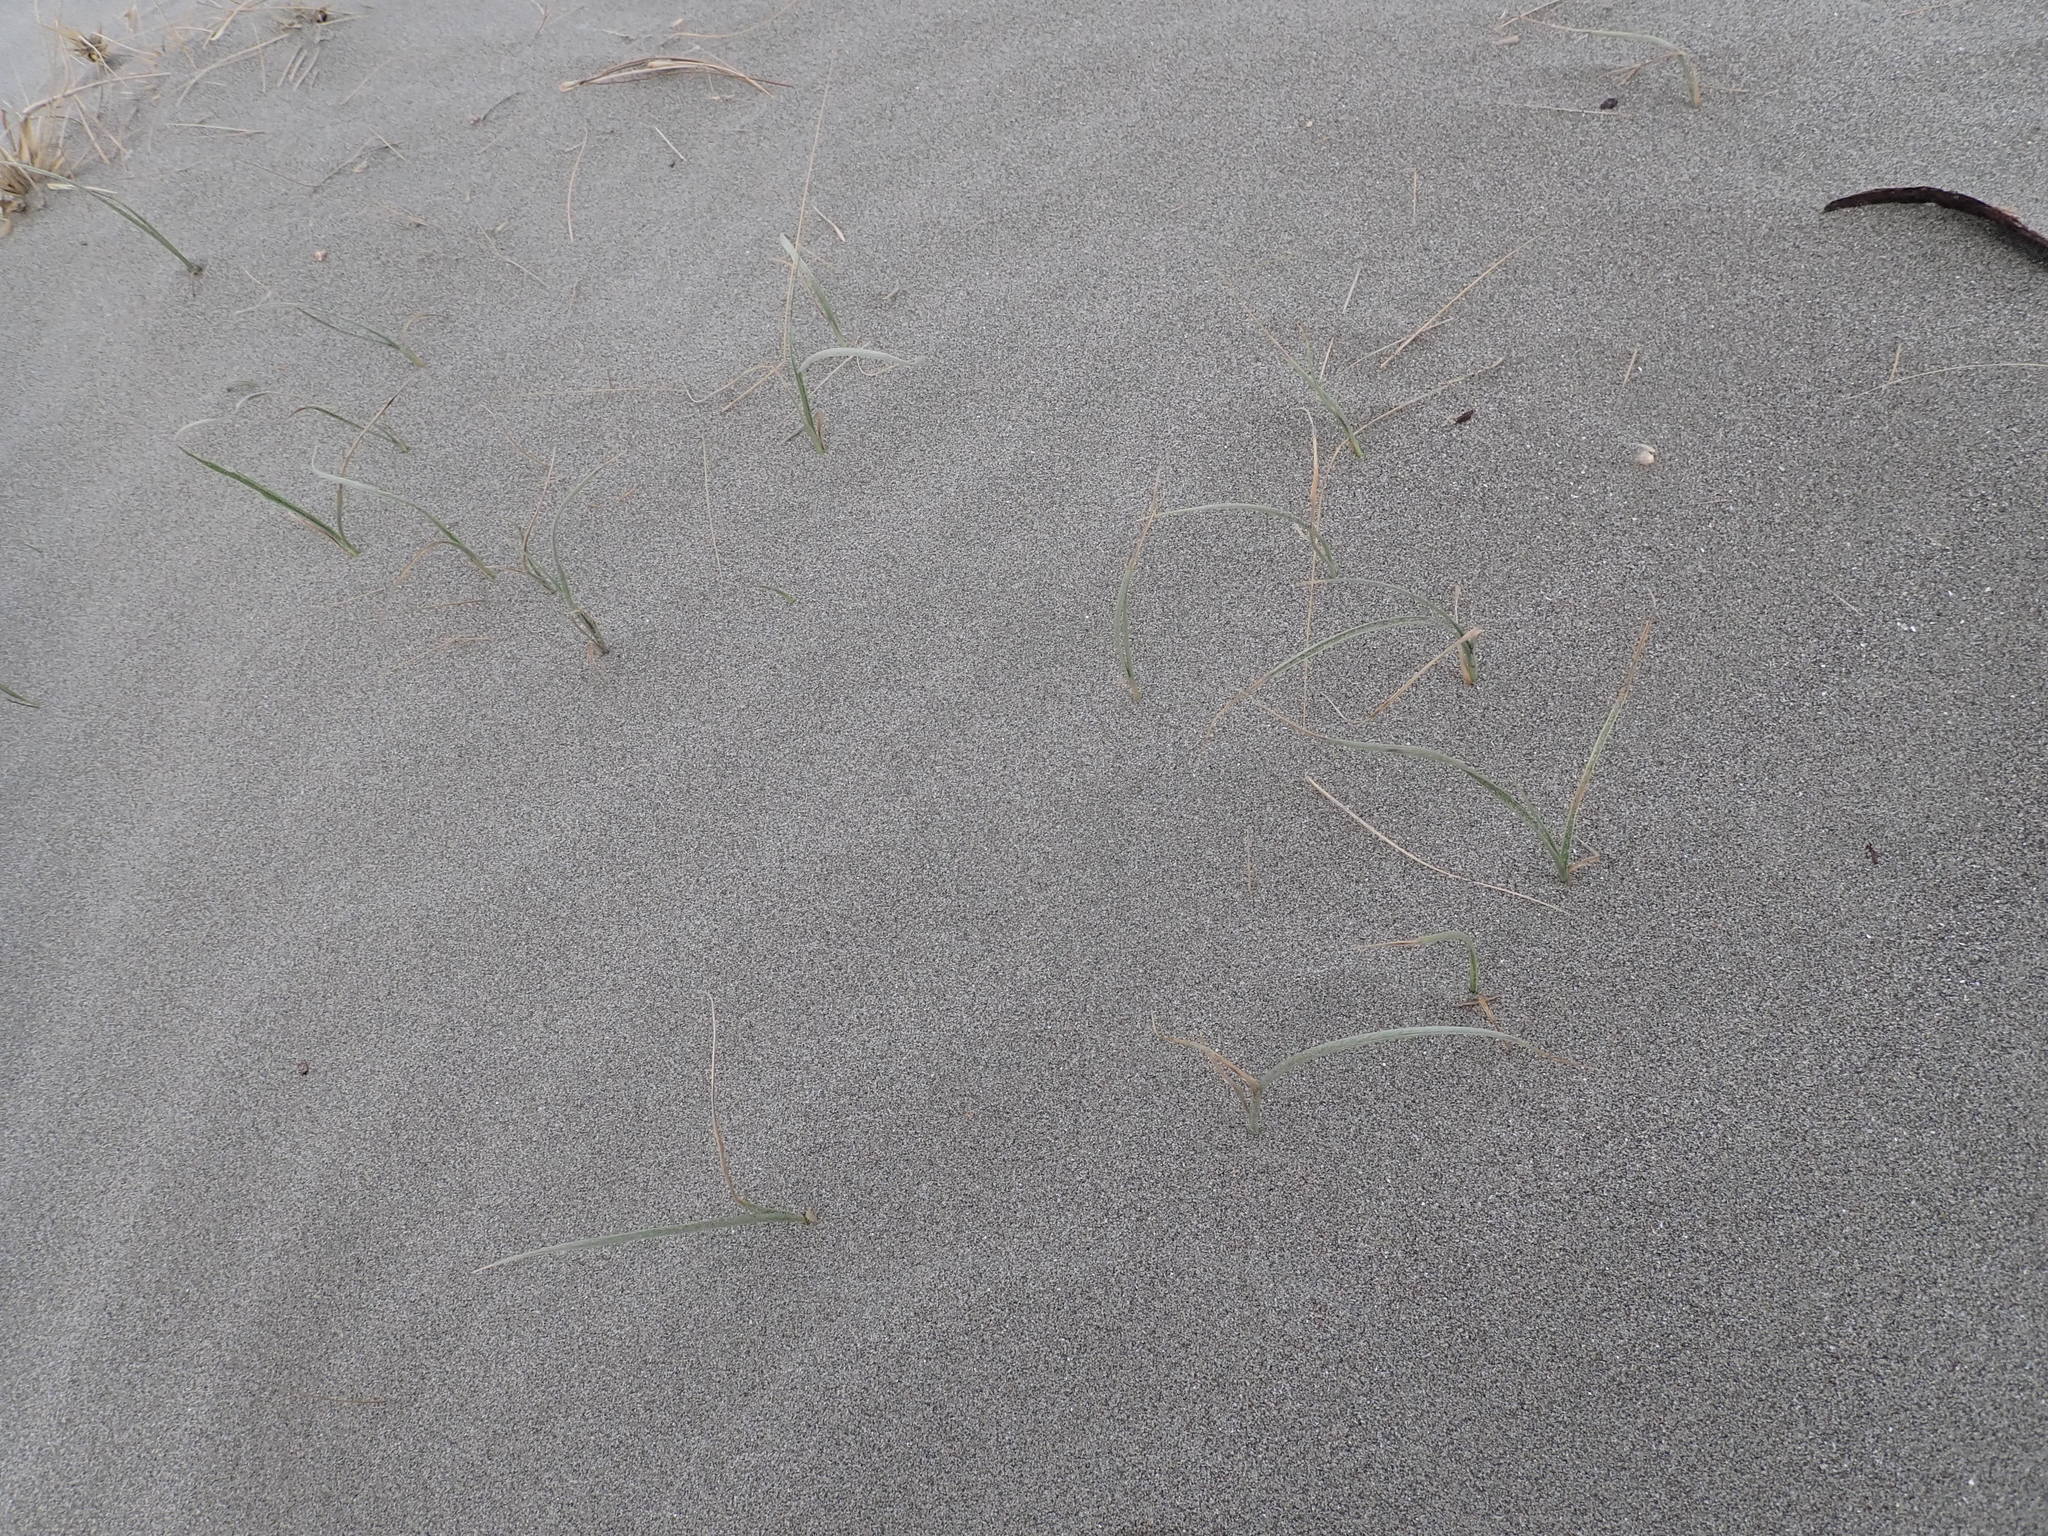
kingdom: Plantae
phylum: Tracheophyta
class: Liliopsida
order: Poales
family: Poaceae
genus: Spinifex
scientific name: Spinifex sericeus
